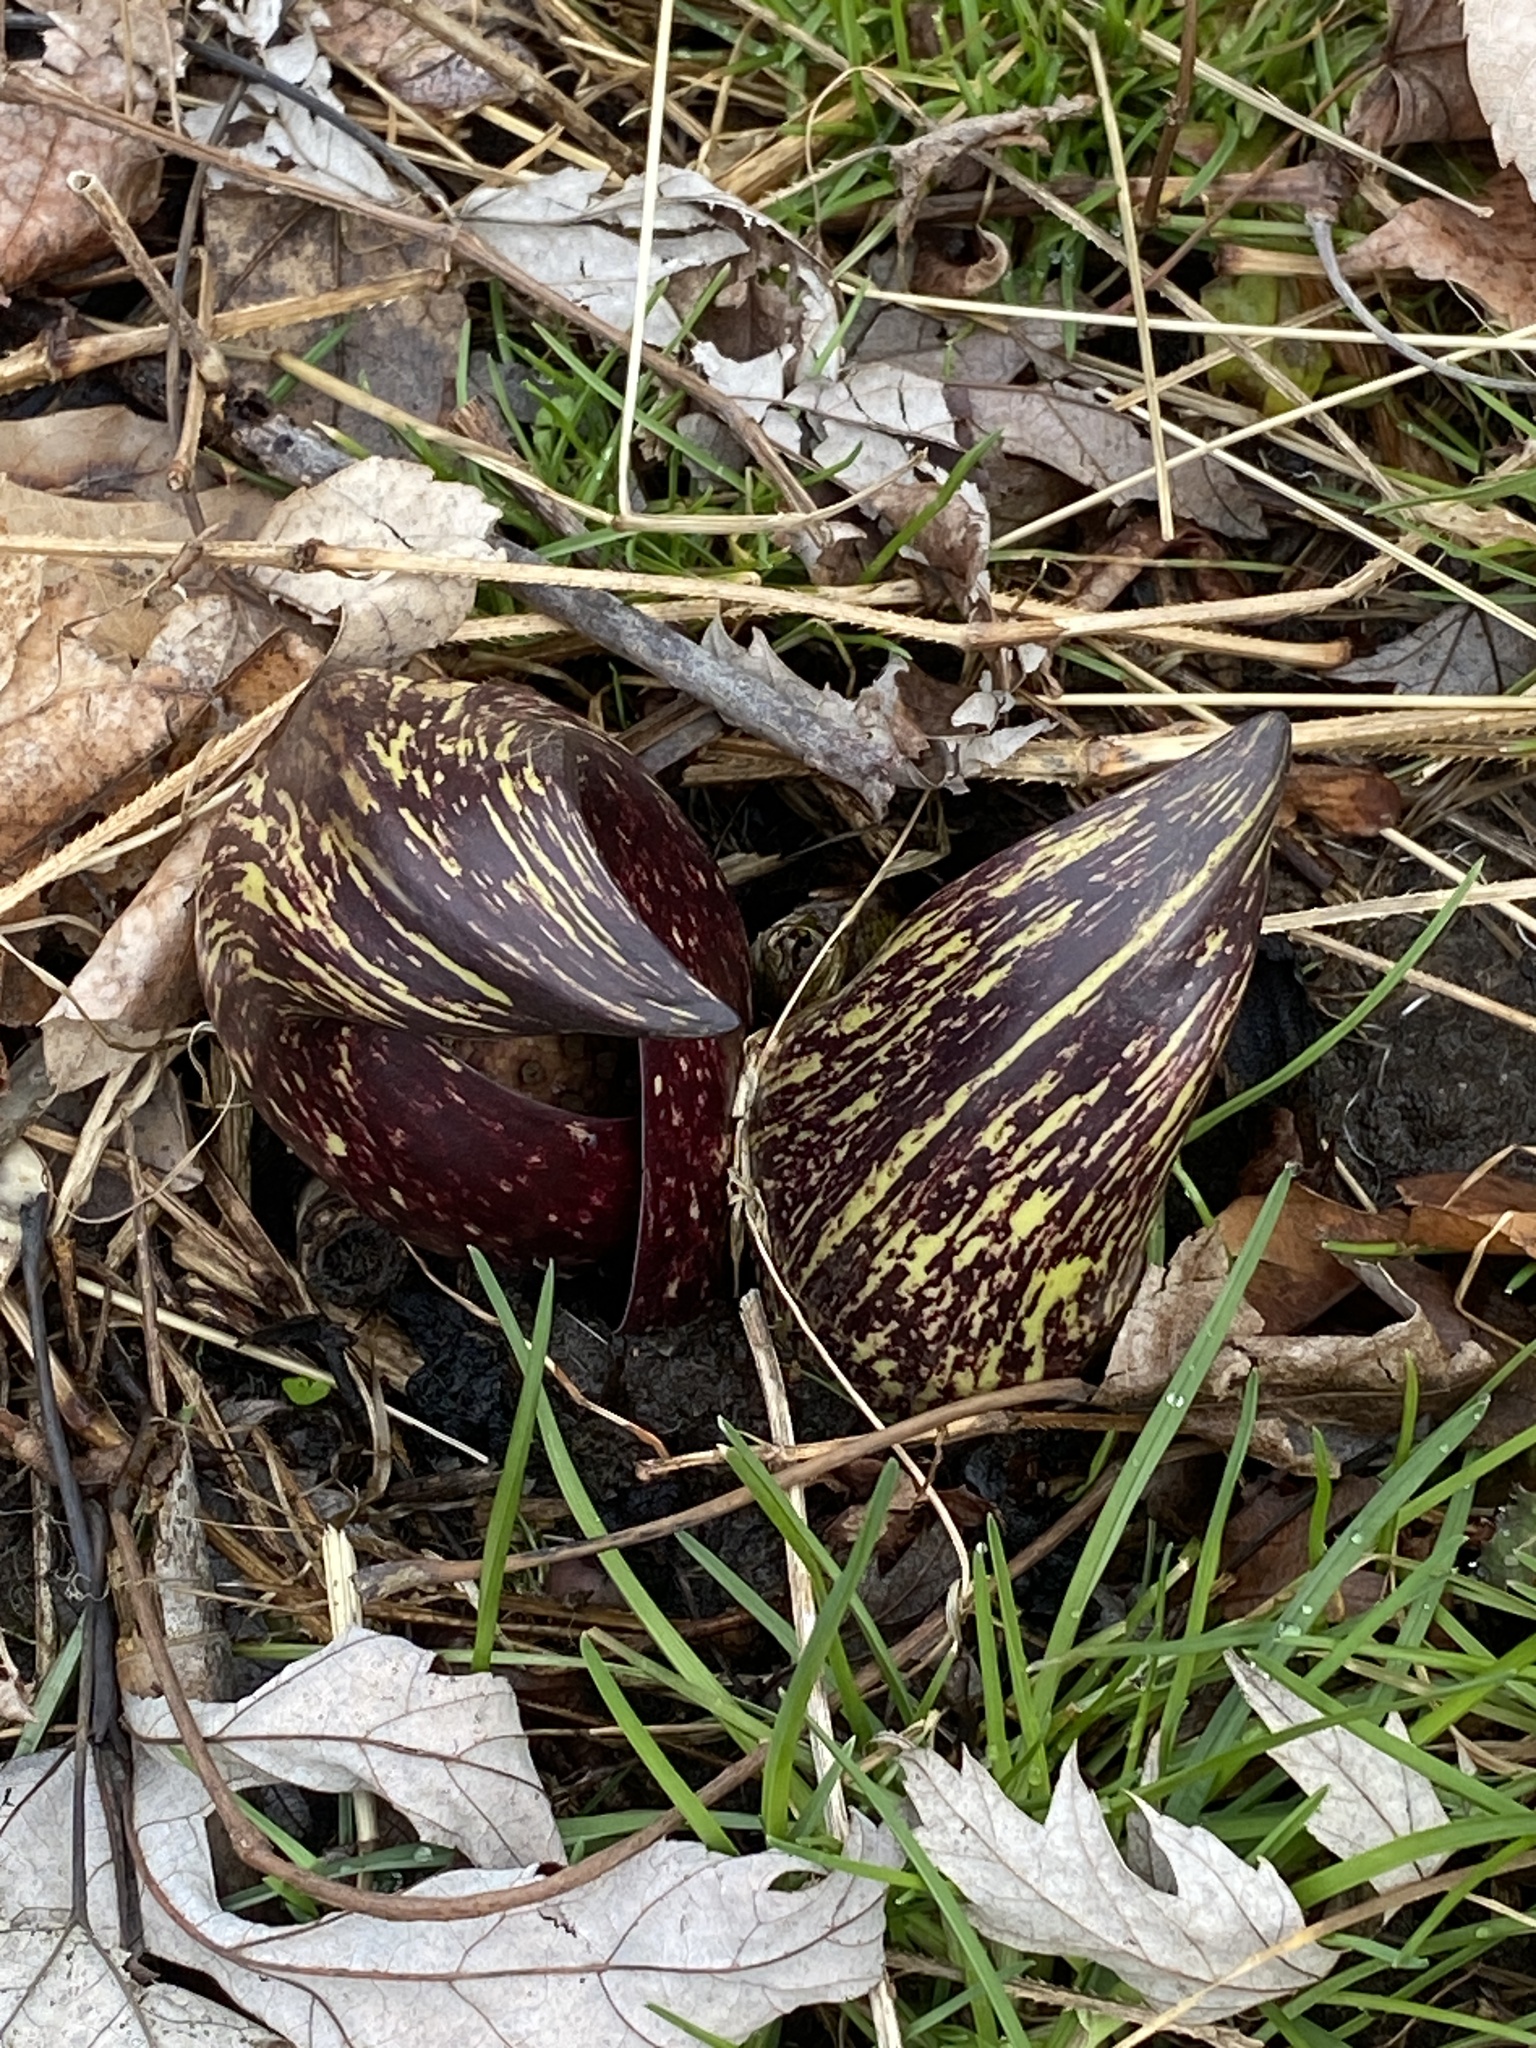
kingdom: Plantae
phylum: Tracheophyta
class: Liliopsida
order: Alismatales
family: Araceae
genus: Symplocarpus
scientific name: Symplocarpus foetidus
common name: Eastern skunk cabbage
